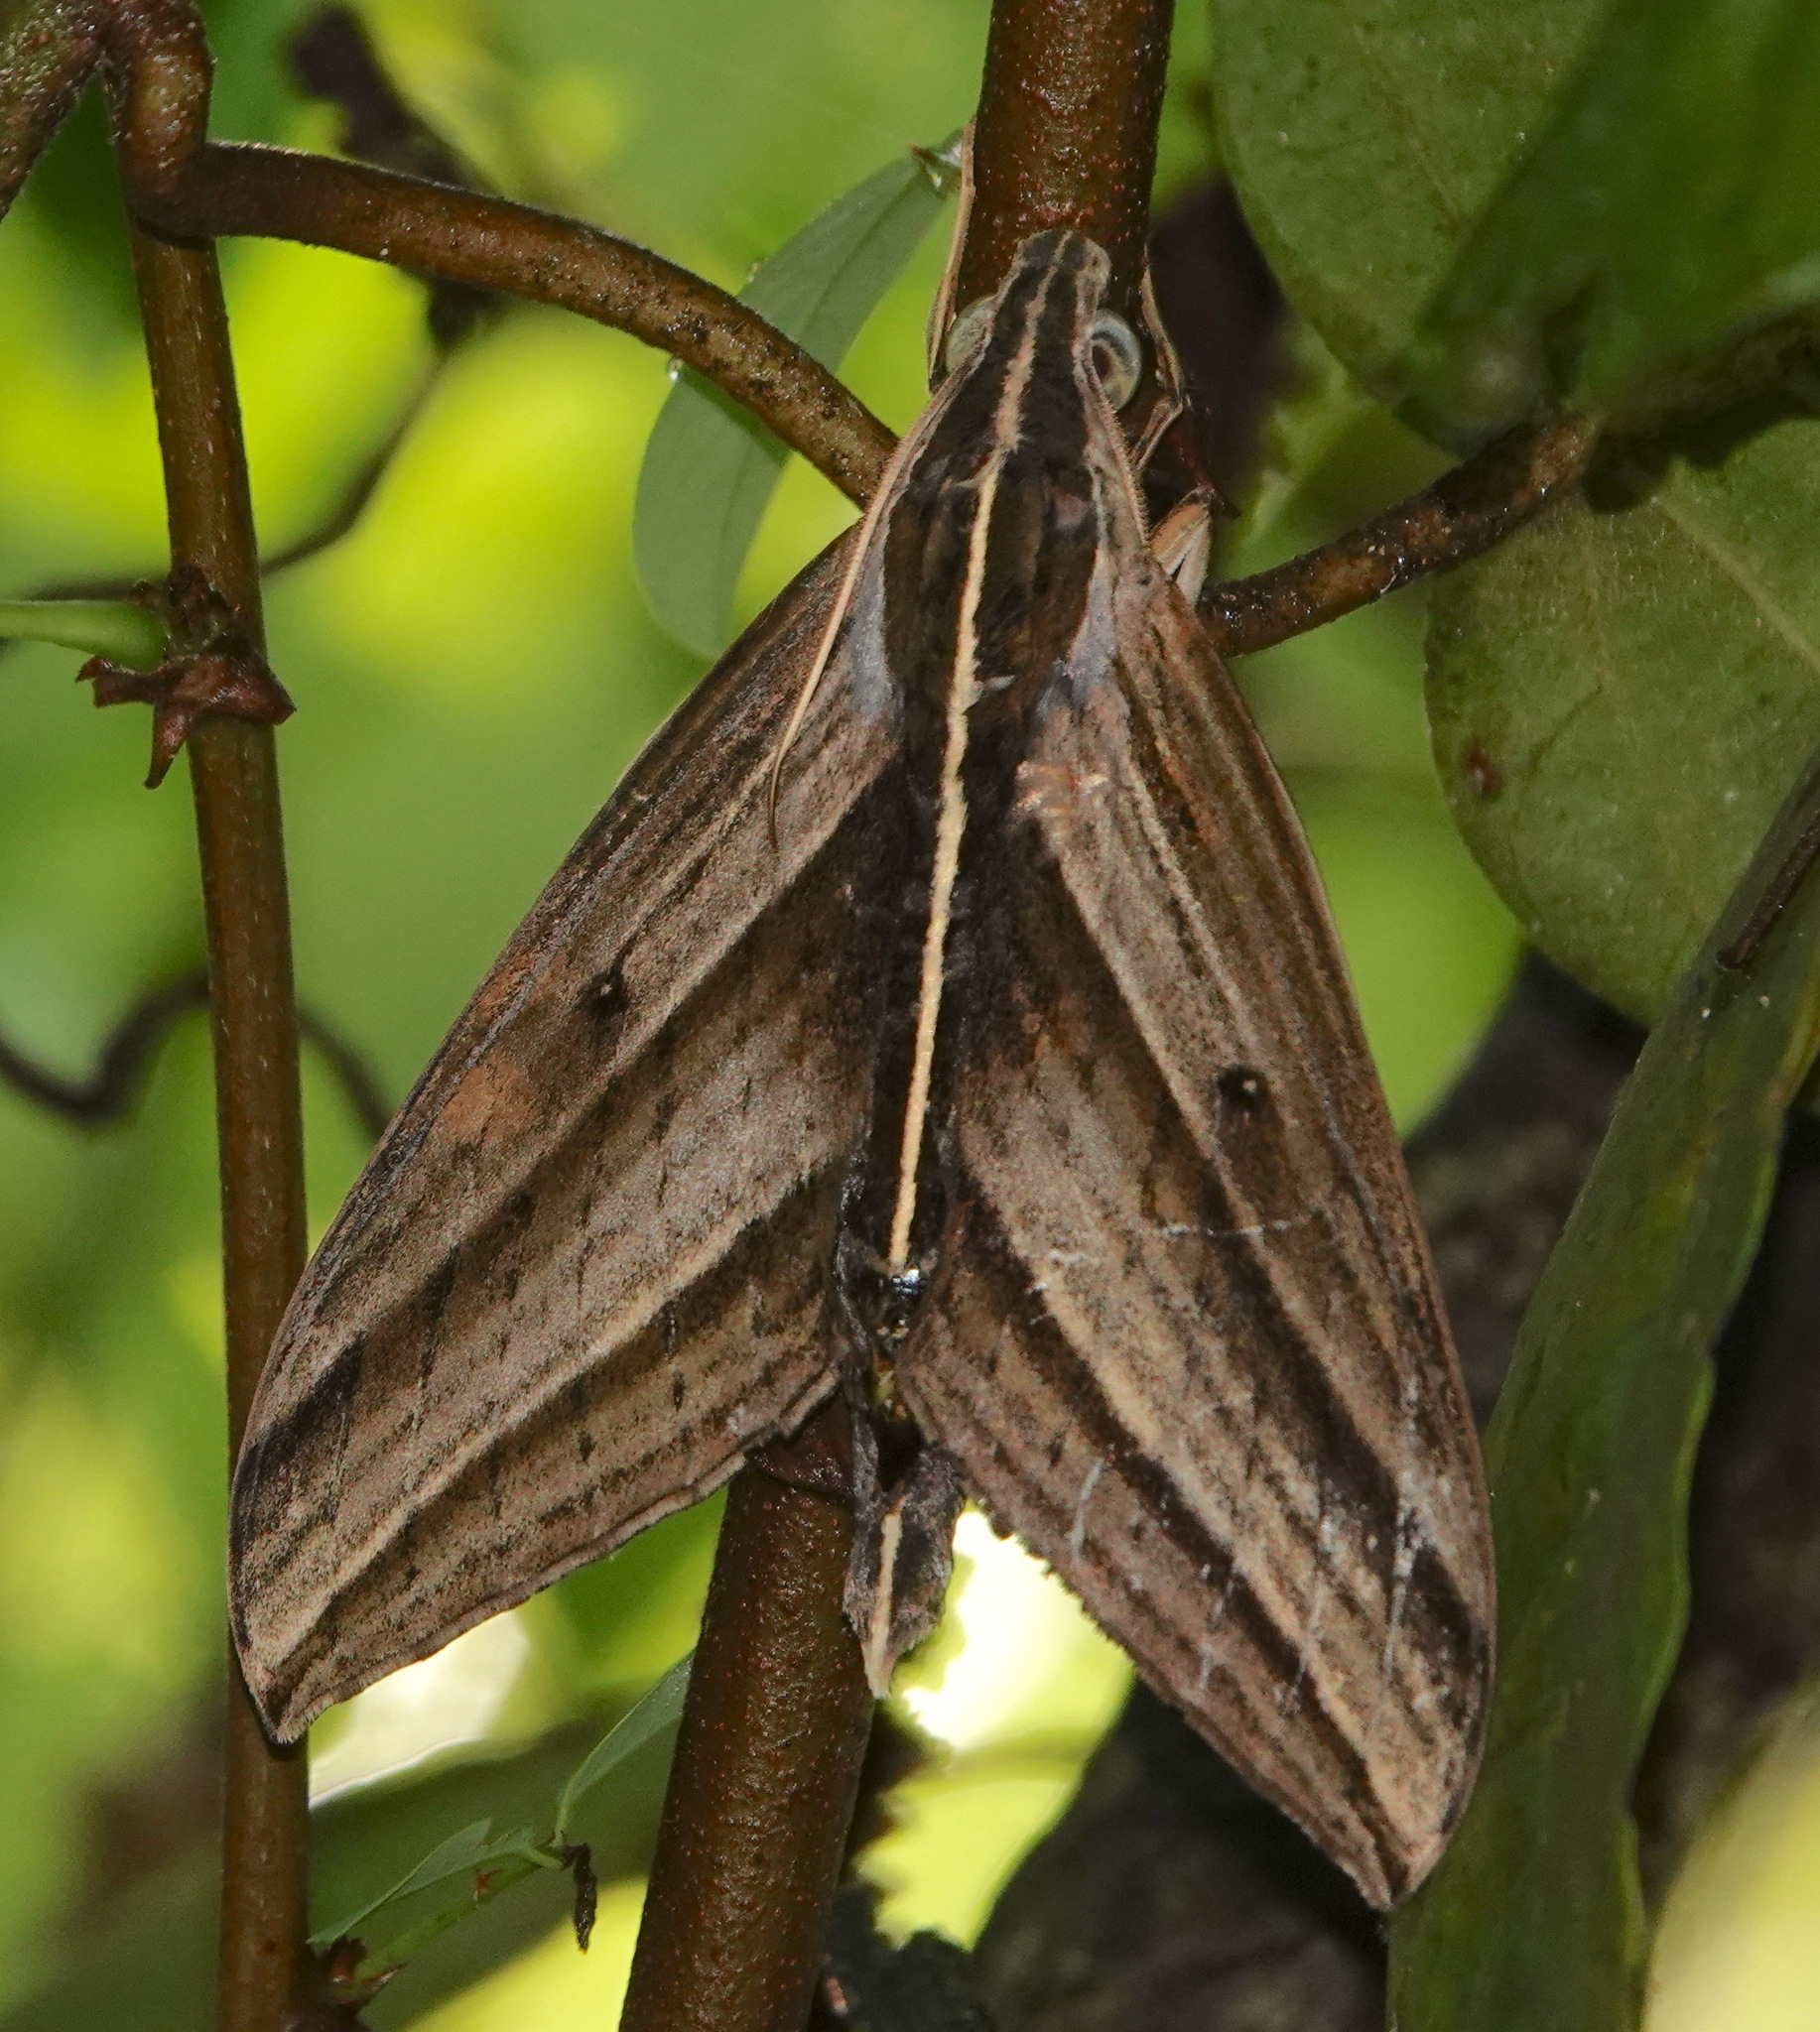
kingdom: Animalia
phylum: Arthropoda
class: Insecta
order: Lepidoptera
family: Sphingidae
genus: Elibia
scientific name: Elibia dolichus
